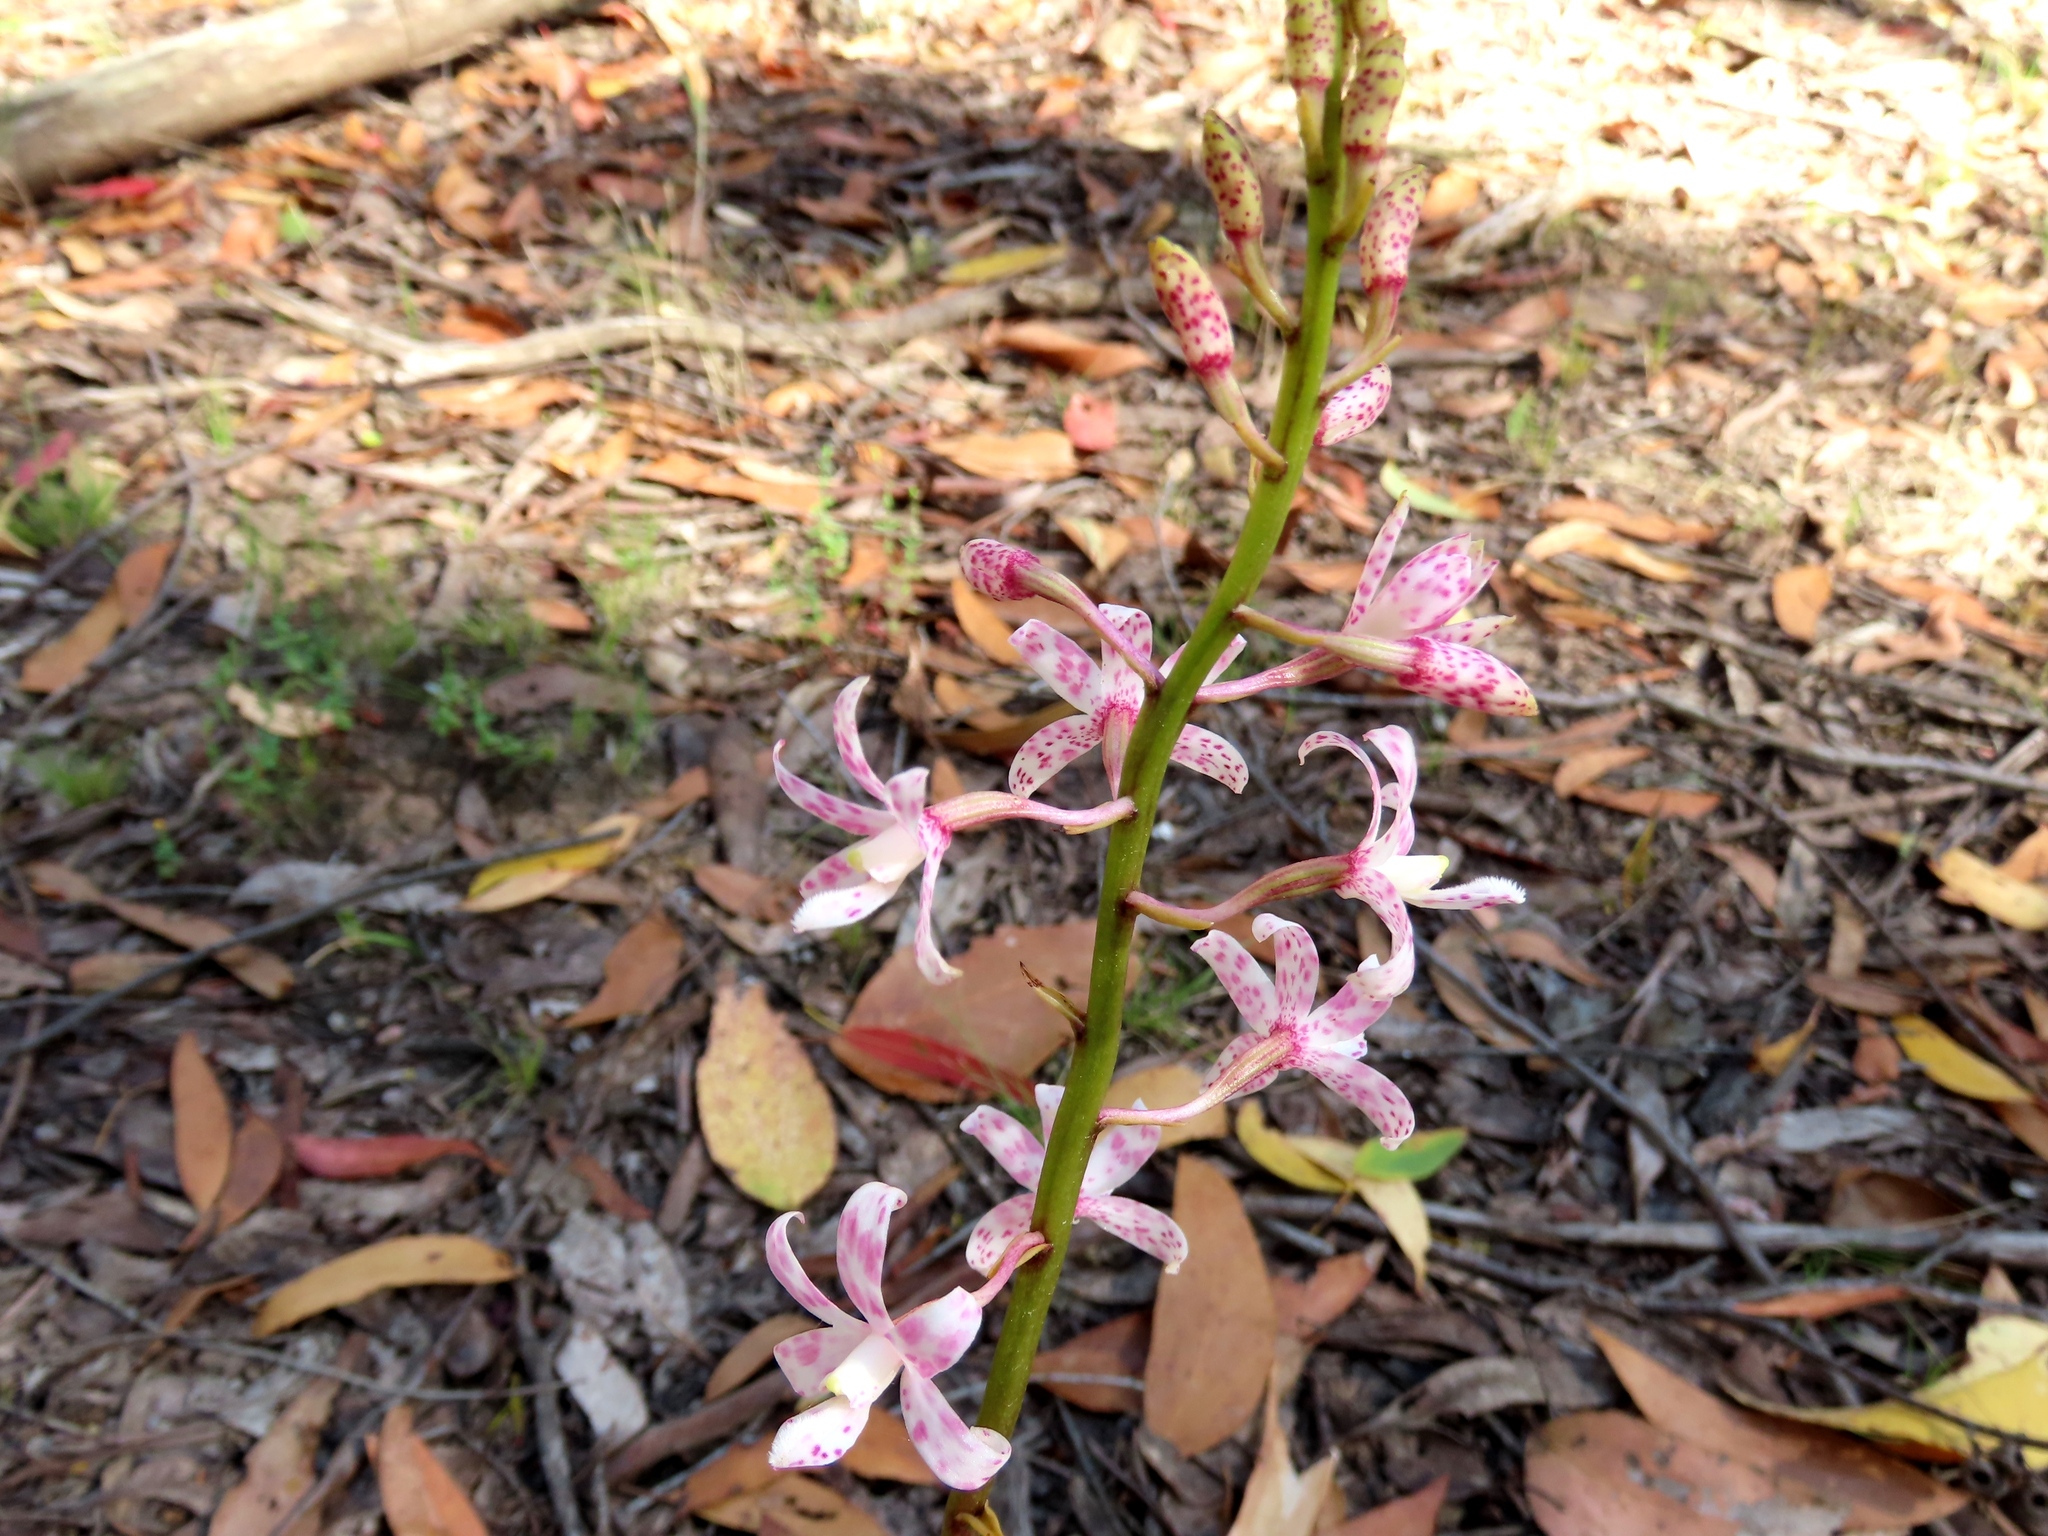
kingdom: Plantae
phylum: Tracheophyta
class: Liliopsida
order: Asparagales
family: Orchidaceae
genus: Dipodium
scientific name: Dipodium pardalinum
